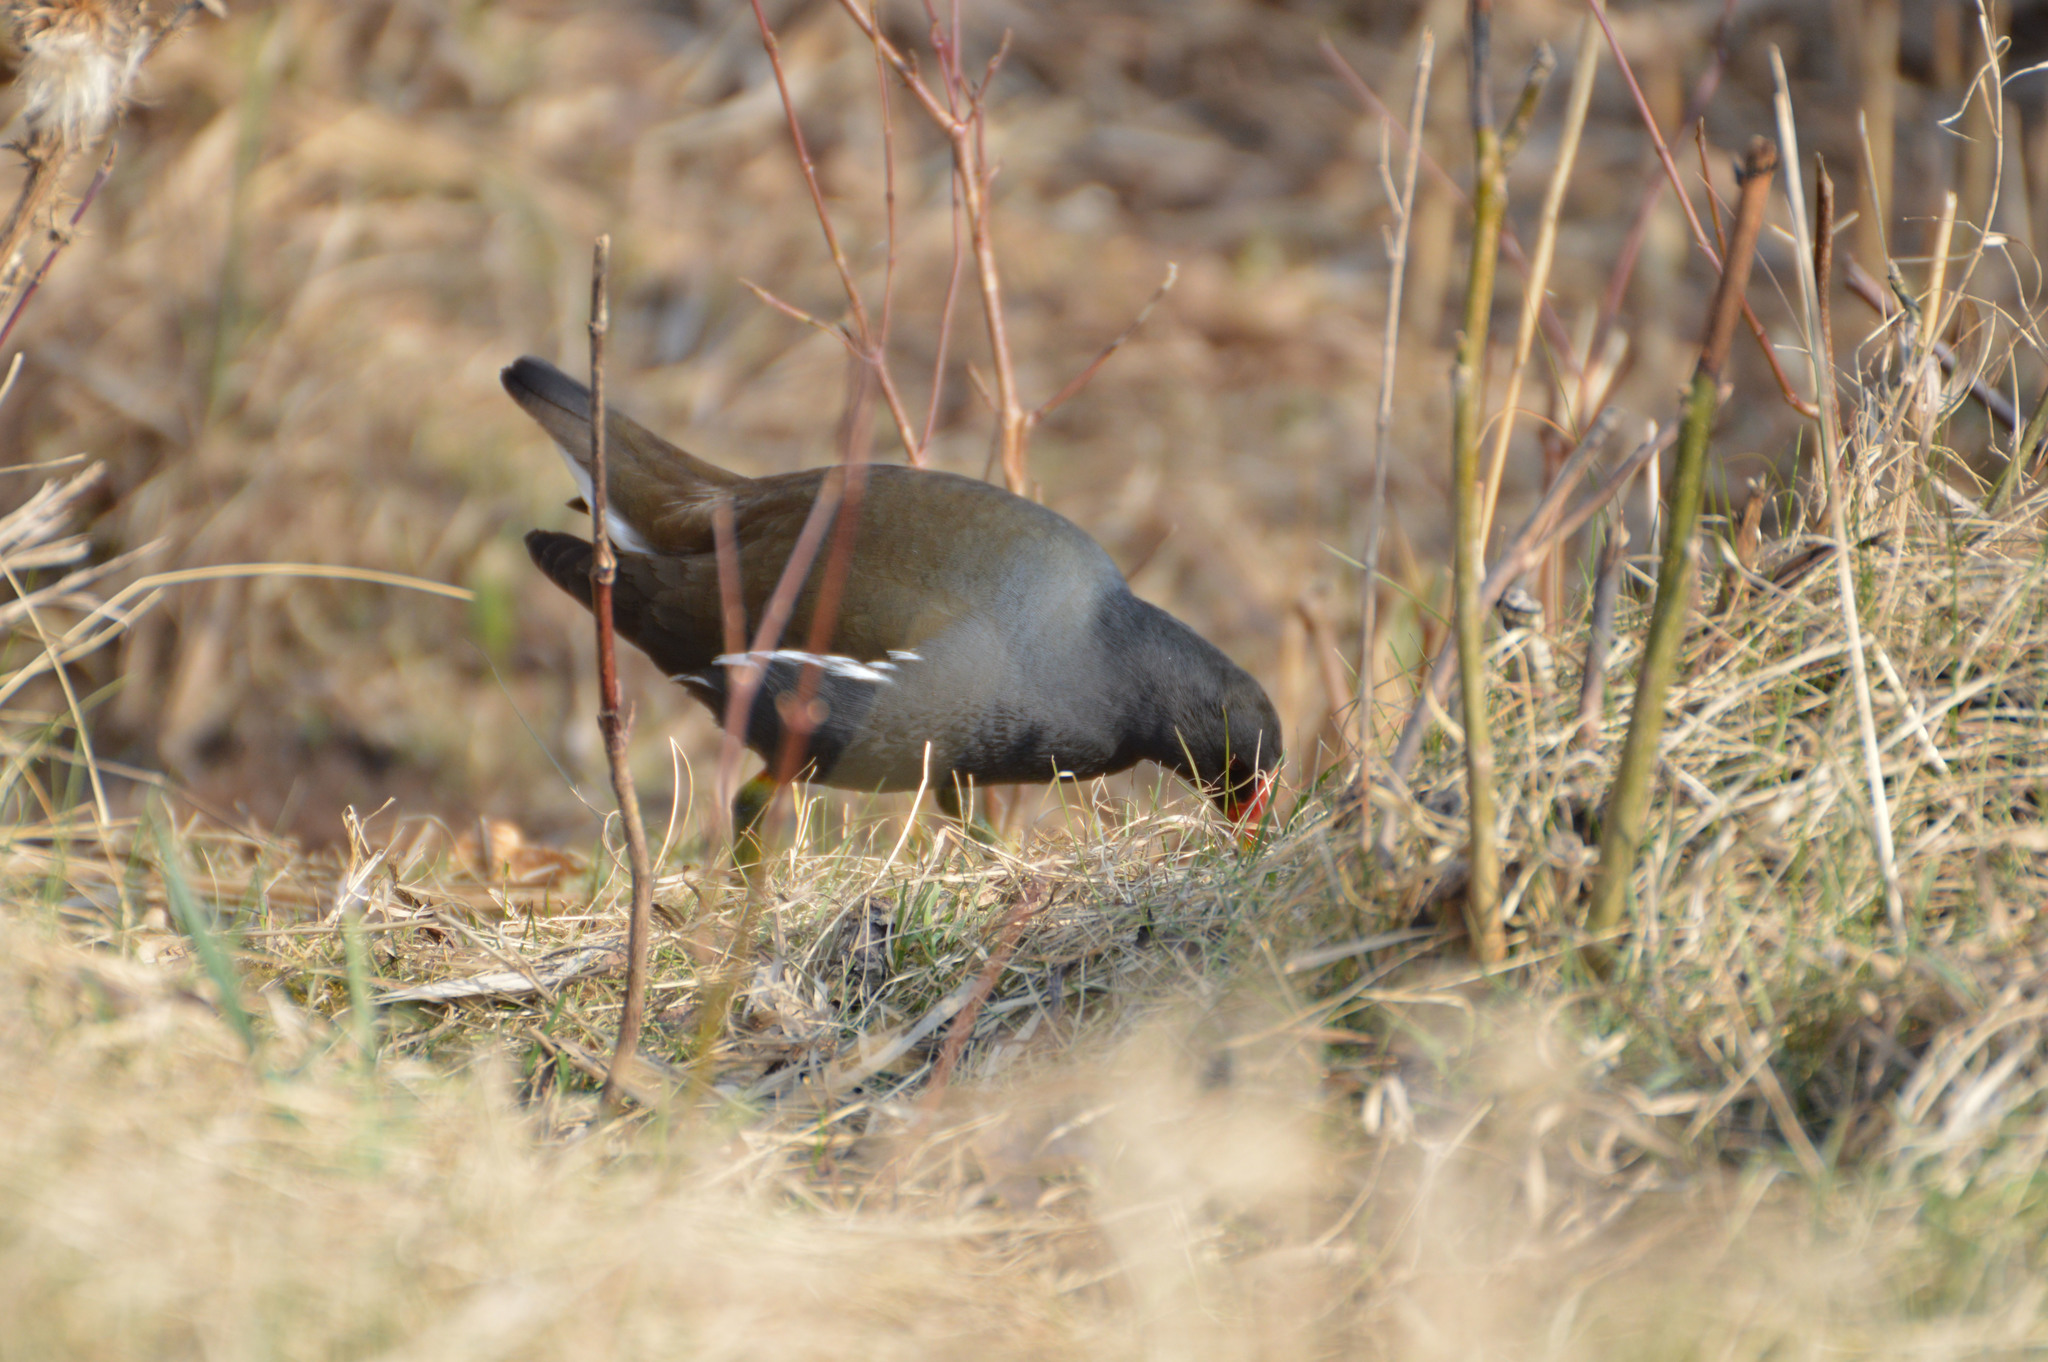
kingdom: Animalia
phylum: Chordata
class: Aves
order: Gruiformes
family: Rallidae
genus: Gallinula
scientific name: Gallinula chloropus
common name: Common moorhen
